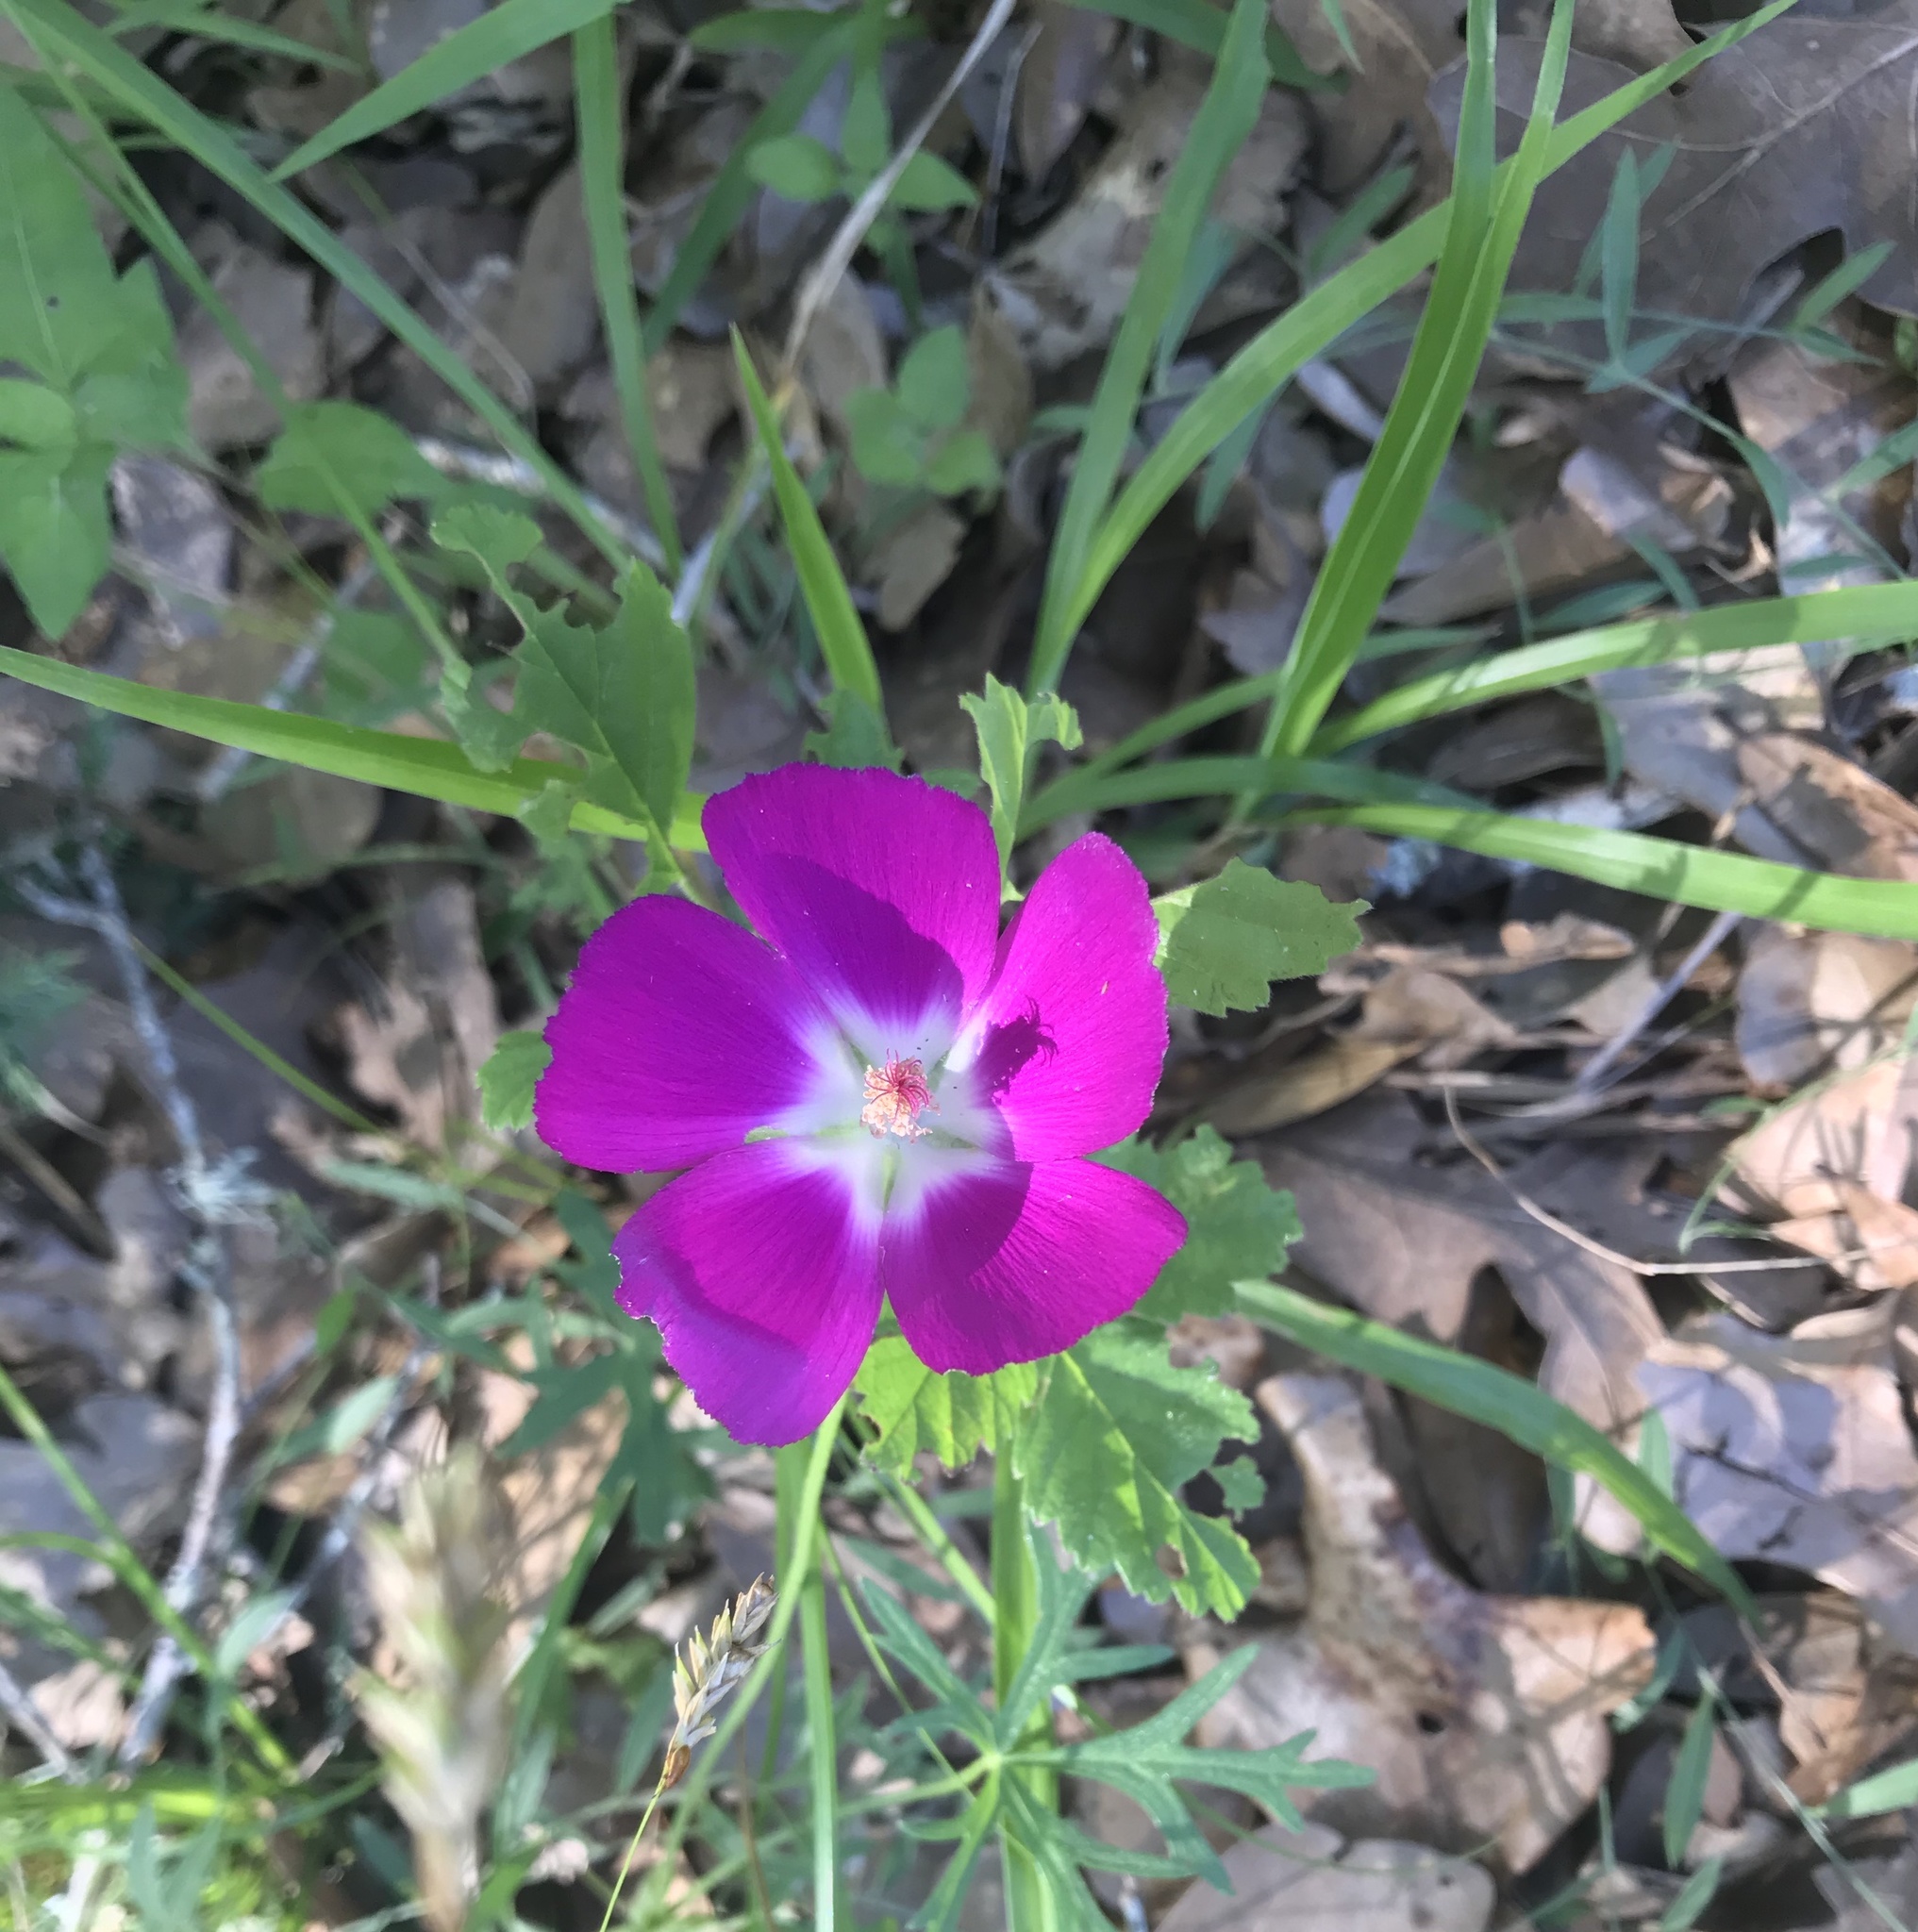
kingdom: Plantae
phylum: Tracheophyta
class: Magnoliopsida
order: Malvales
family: Malvaceae
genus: Callirhoe
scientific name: Callirhoe involucrata
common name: Purple poppy-mallow
